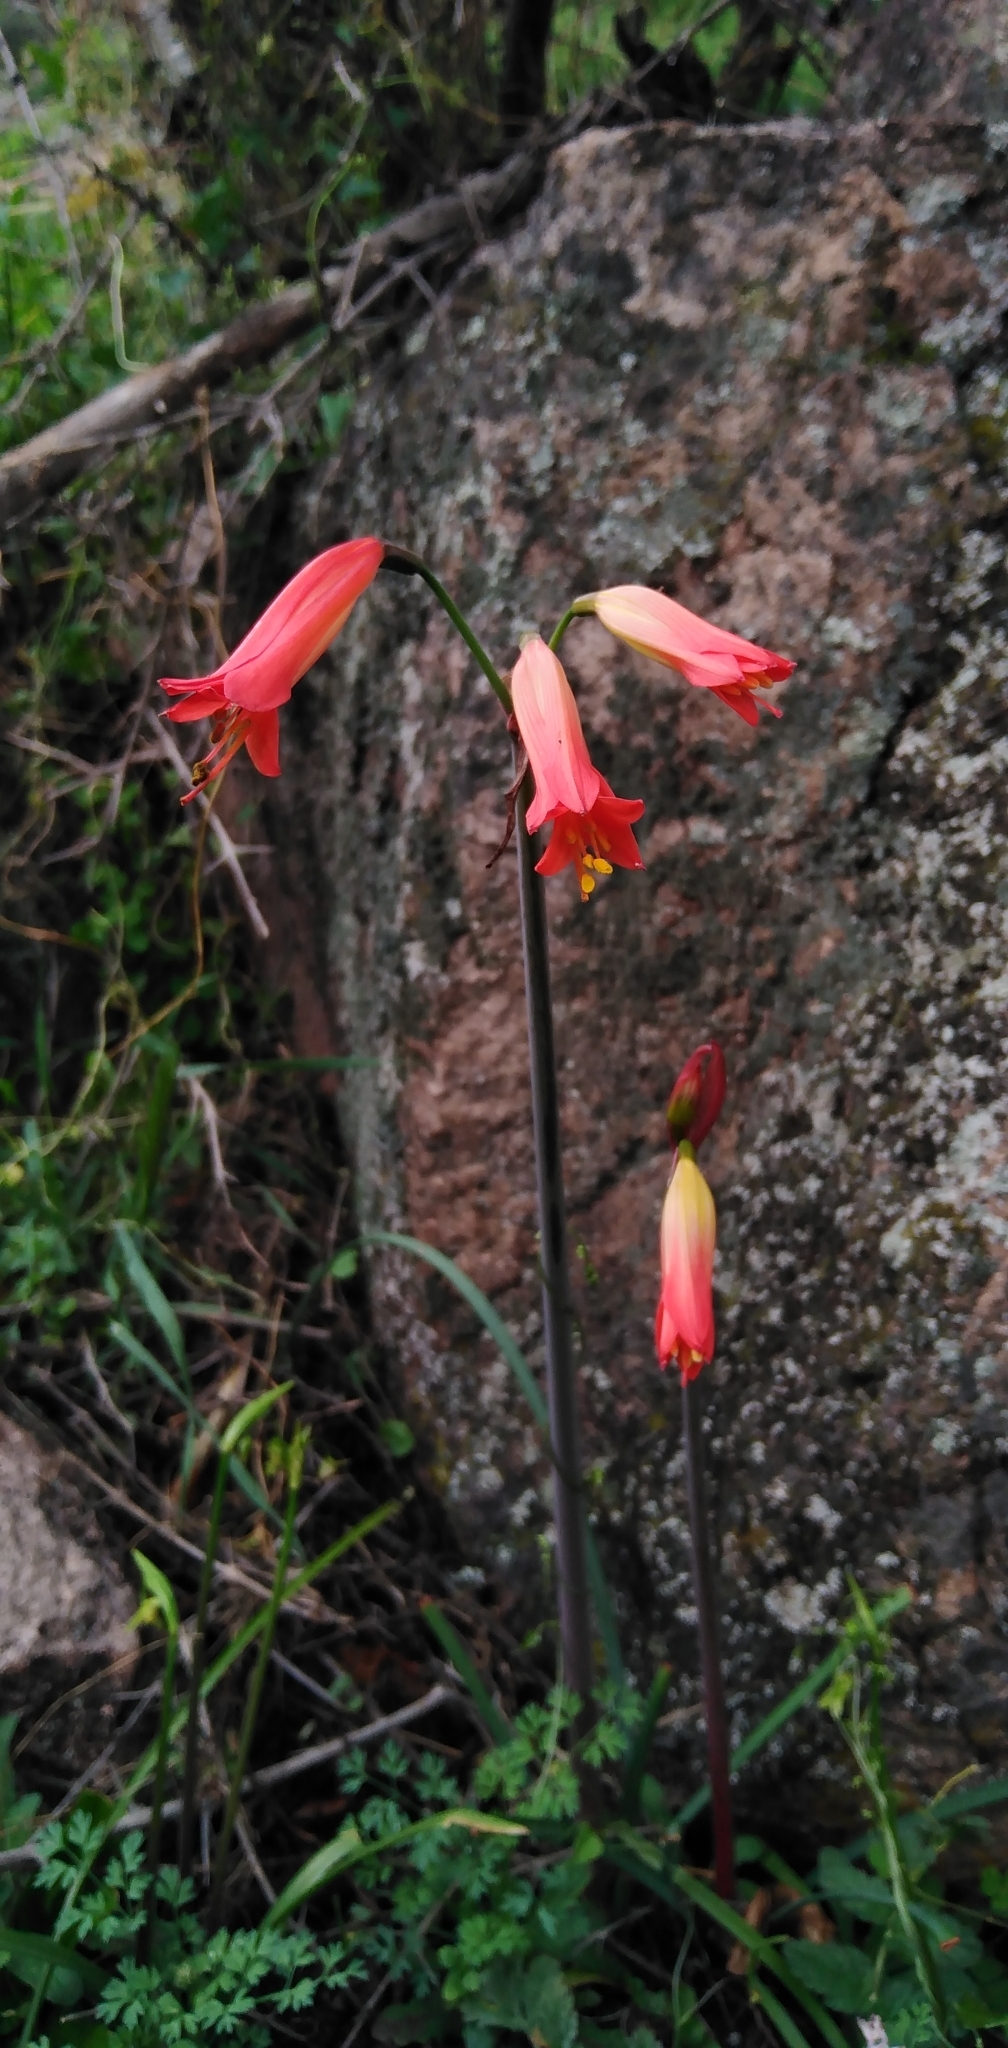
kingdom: Plantae
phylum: Tracheophyta
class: Liliopsida
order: Asparagales
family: Amaryllidaceae
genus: Phycella
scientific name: Phycella cyrtanthoides
